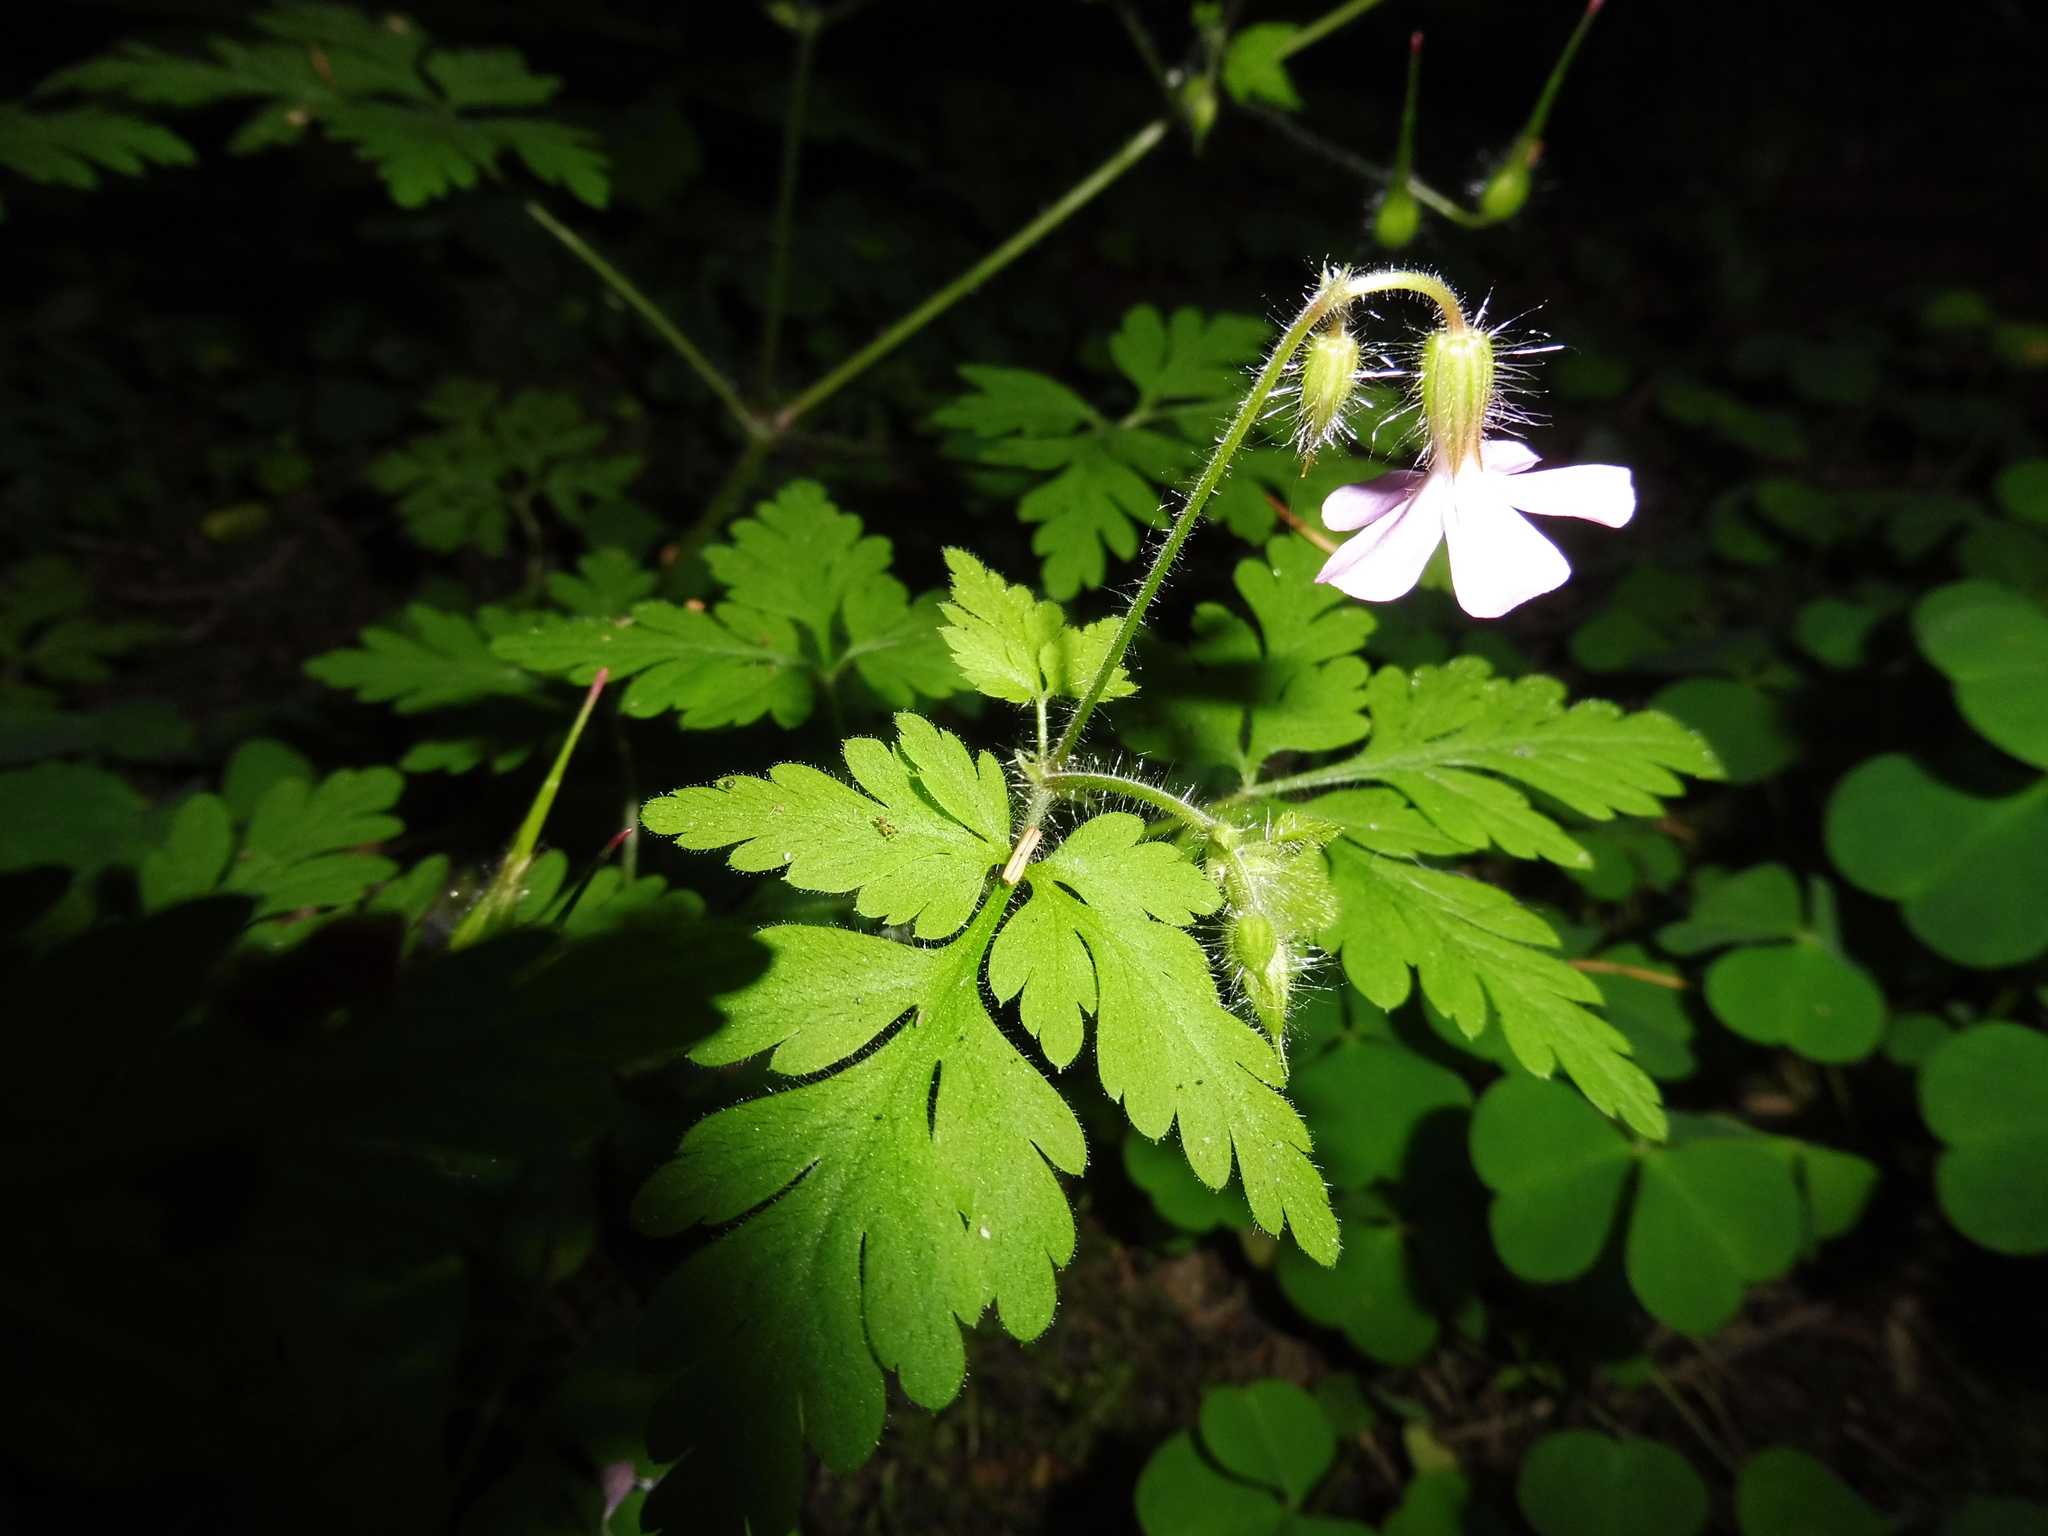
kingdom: Plantae
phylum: Tracheophyta
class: Magnoliopsida
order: Geraniales
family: Geraniaceae
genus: Geranium
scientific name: Geranium robertianum
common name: Herb-robert
